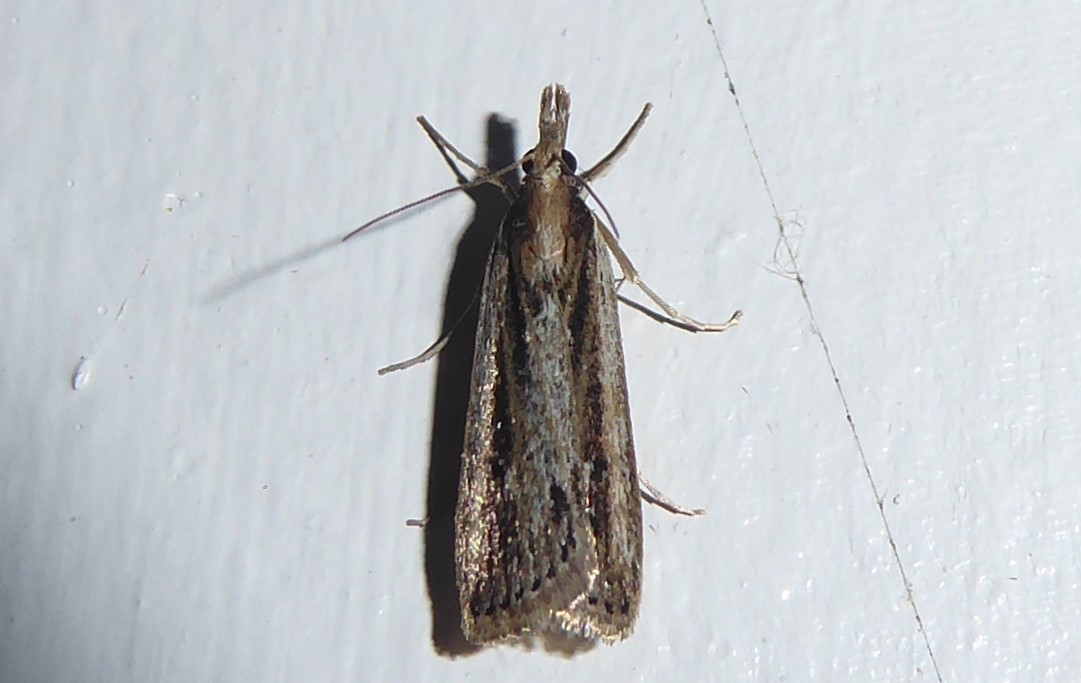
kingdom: Animalia
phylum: Arthropoda
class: Insecta
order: Lepidoptera
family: Crambidae
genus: Eudonia
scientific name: Eudonia sabulosella
